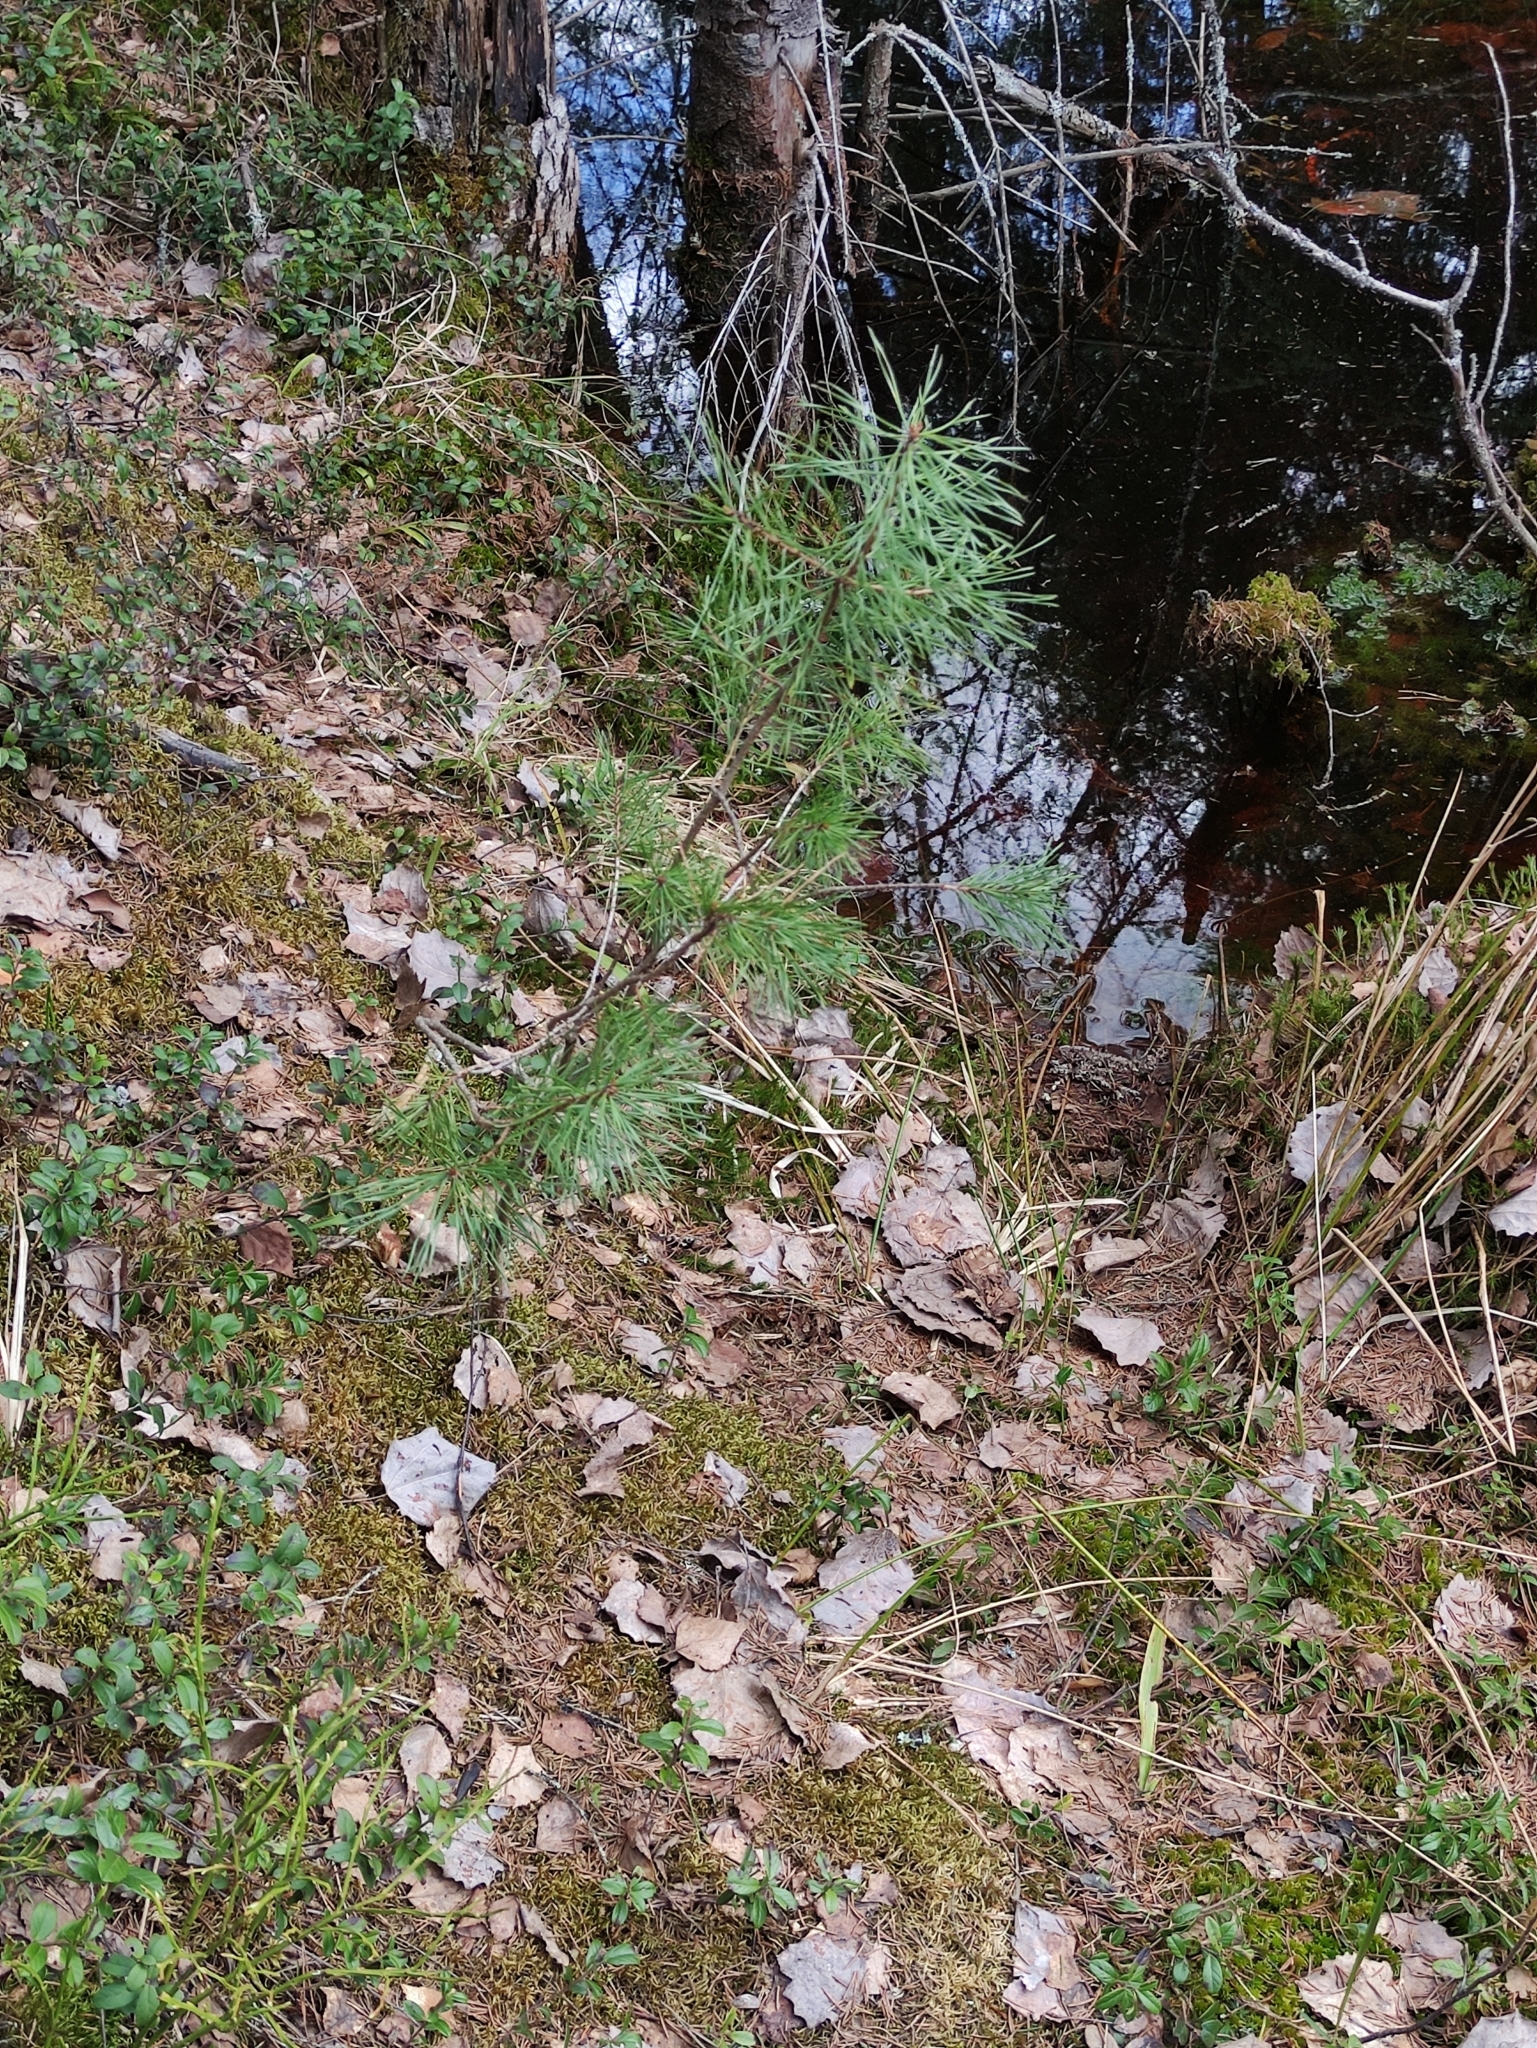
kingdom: Plantae
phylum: Tracheophyta
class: Pinopsida
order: Pinales
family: Pinaceae
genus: Pinus
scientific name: Pinus sylvestris
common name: Scots pine
